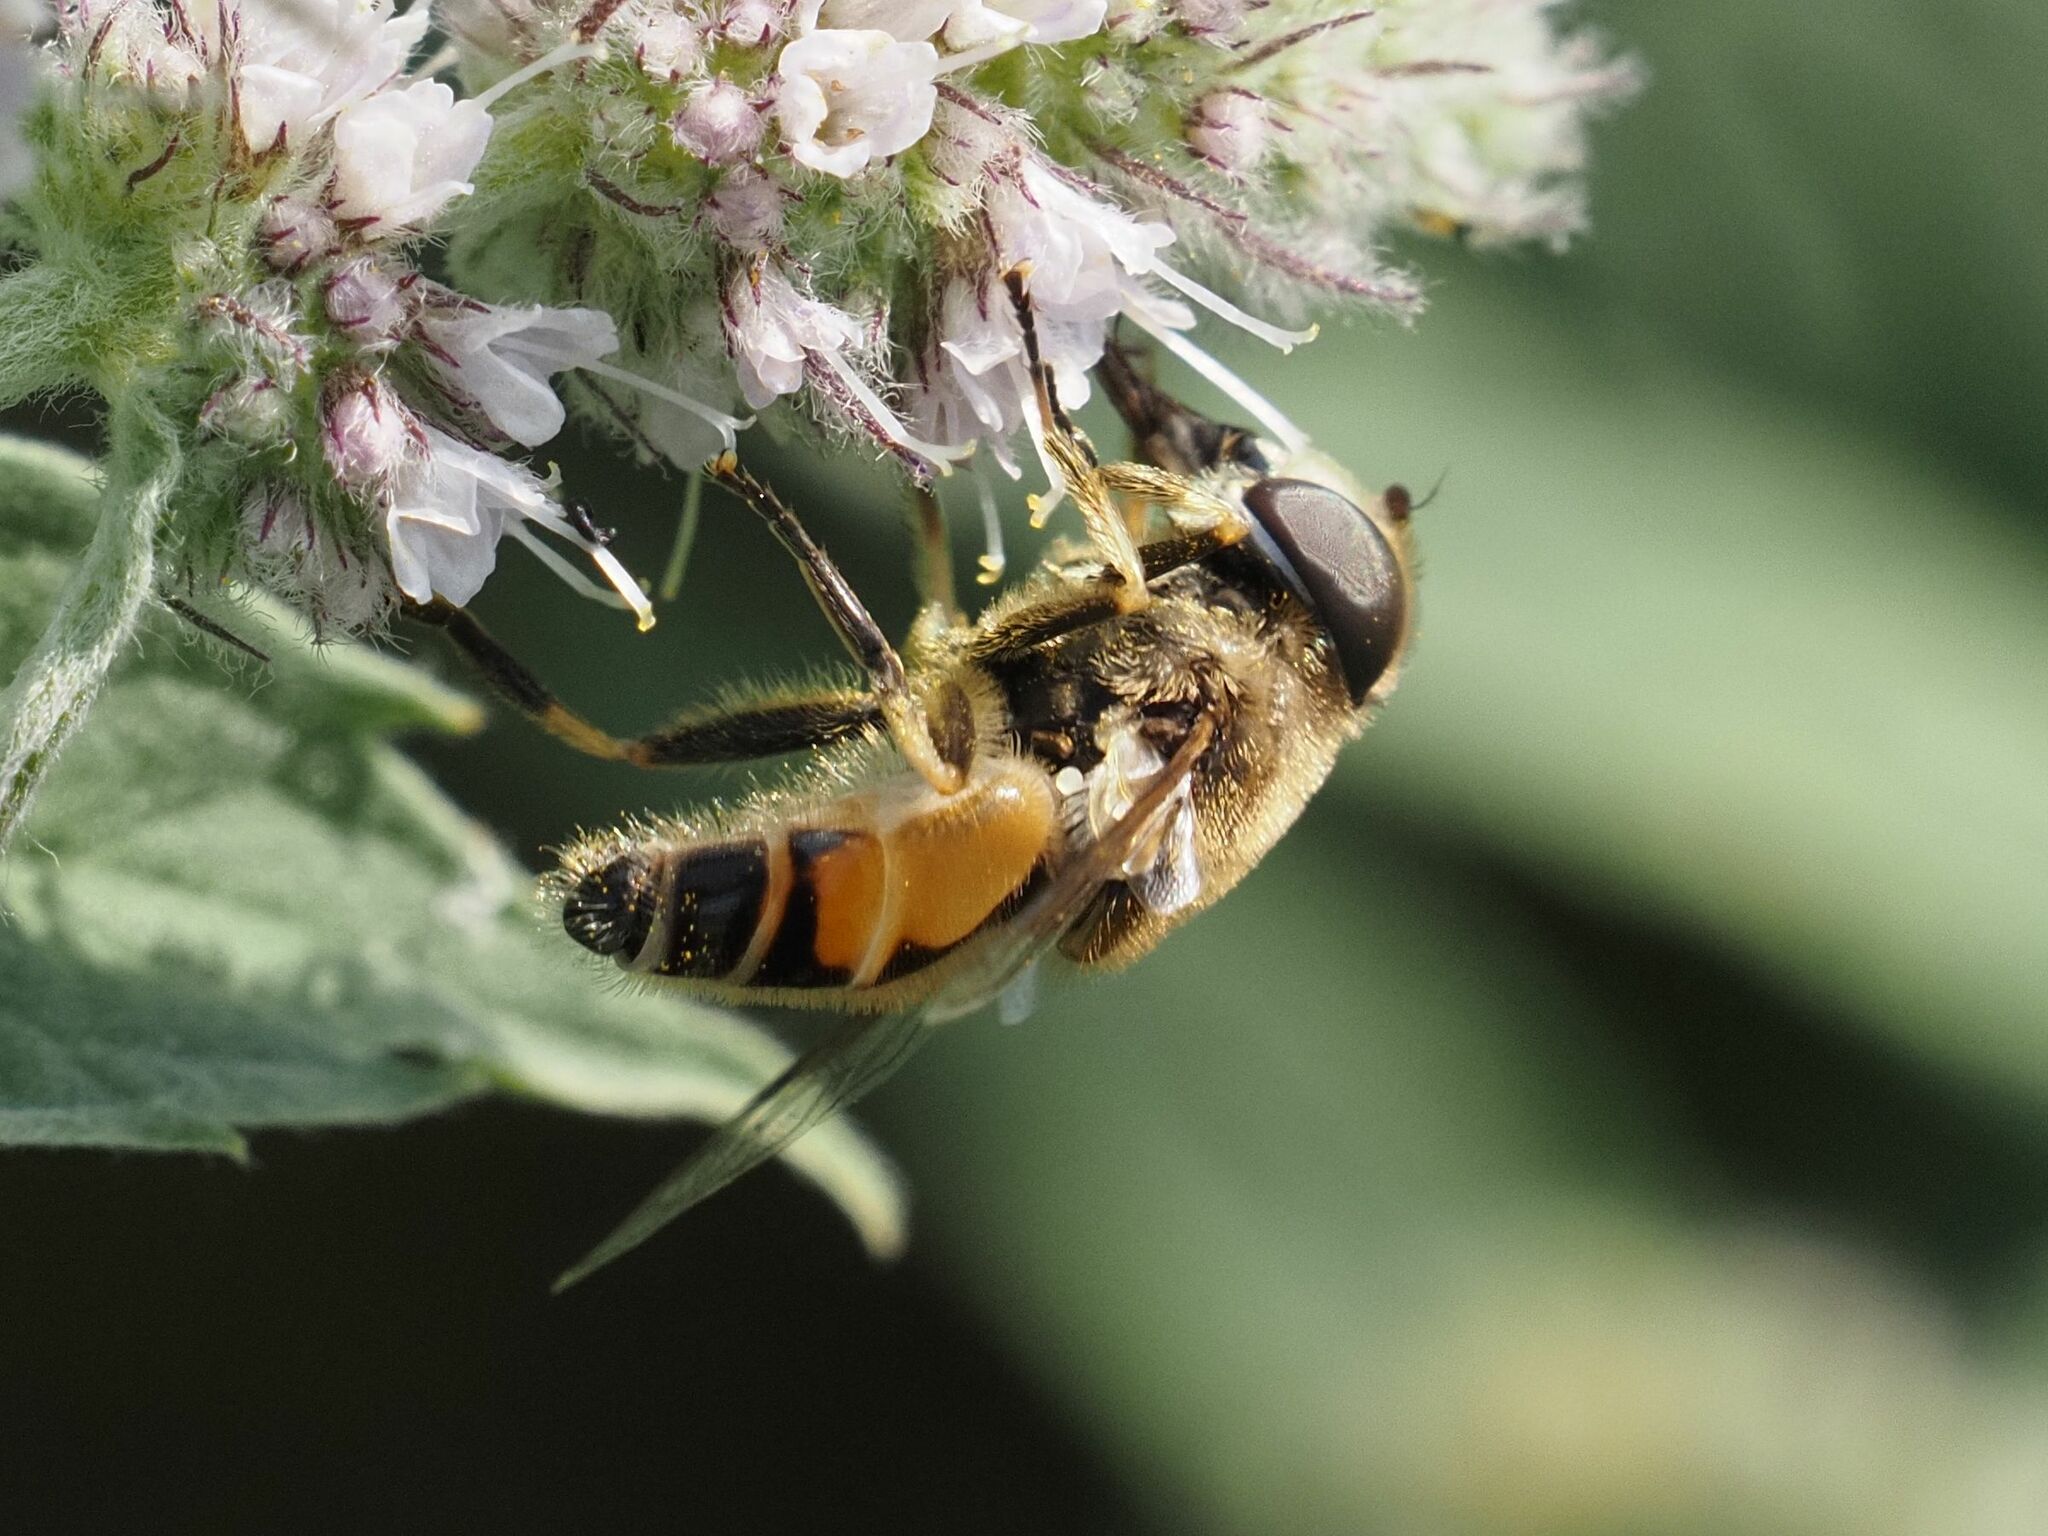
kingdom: Animalia
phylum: Arthropoda
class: Insecta
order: Diptera
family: Syrphidae
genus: Eristalis
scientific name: Eristalis arbustorum
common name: Hover fly
